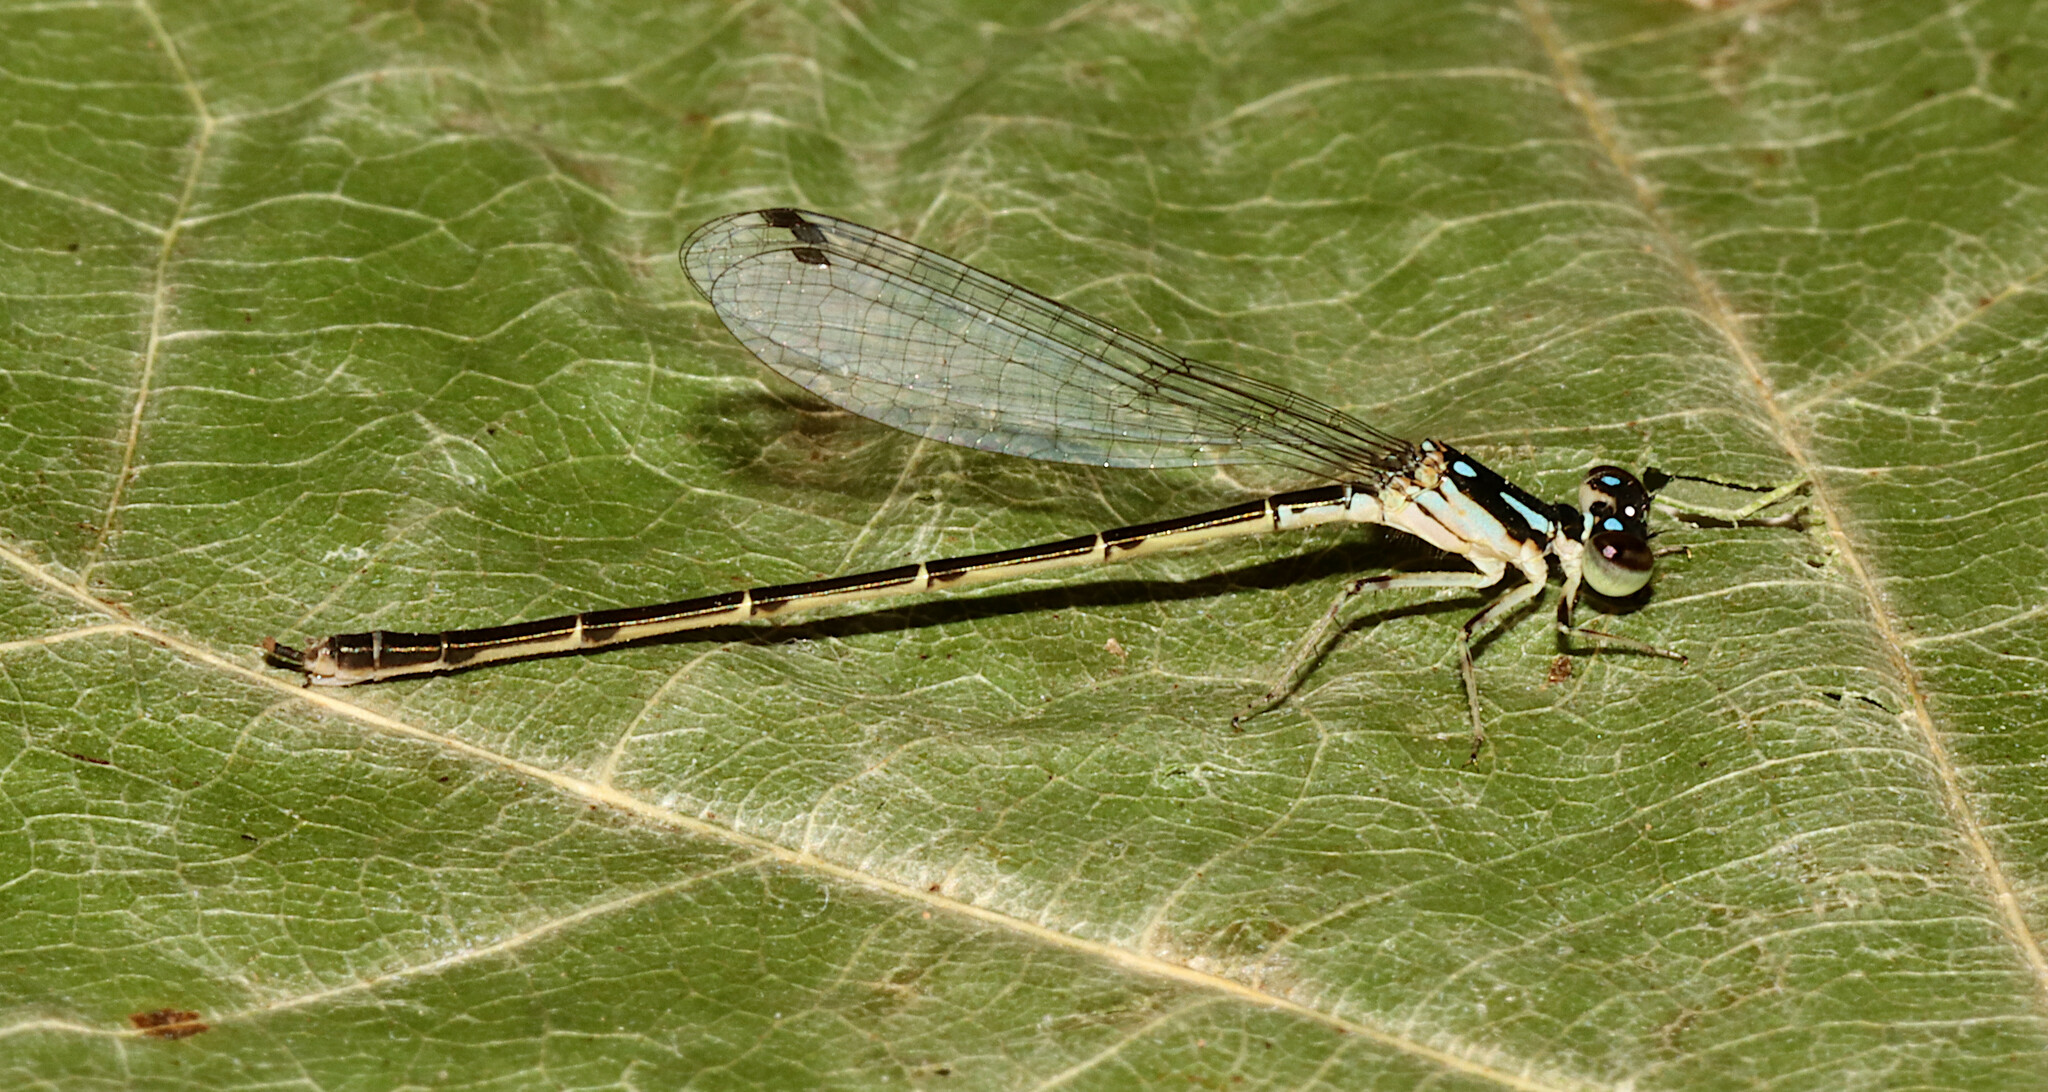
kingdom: Animalia
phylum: Arthropoda
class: Insecta
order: Odonata
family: Coenagrionidae
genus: Ischnura
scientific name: Ischnura posita
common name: Fragile forktail
